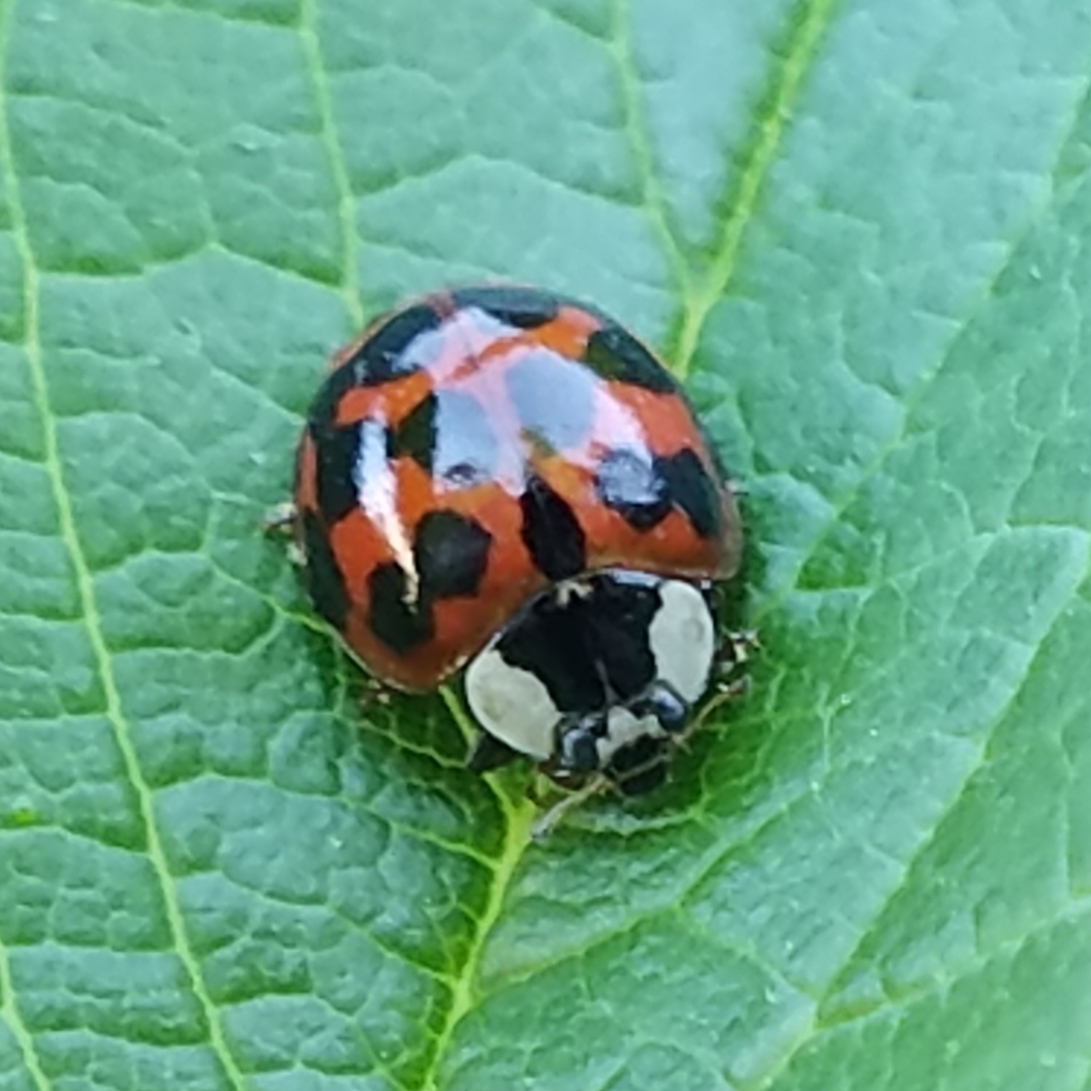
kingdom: Animalia
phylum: Arthropoda
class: Insecta
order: Coleoptera
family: Coccinellidae
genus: Harmonia
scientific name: Harmonia axyridis
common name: Harlequin ladybird
